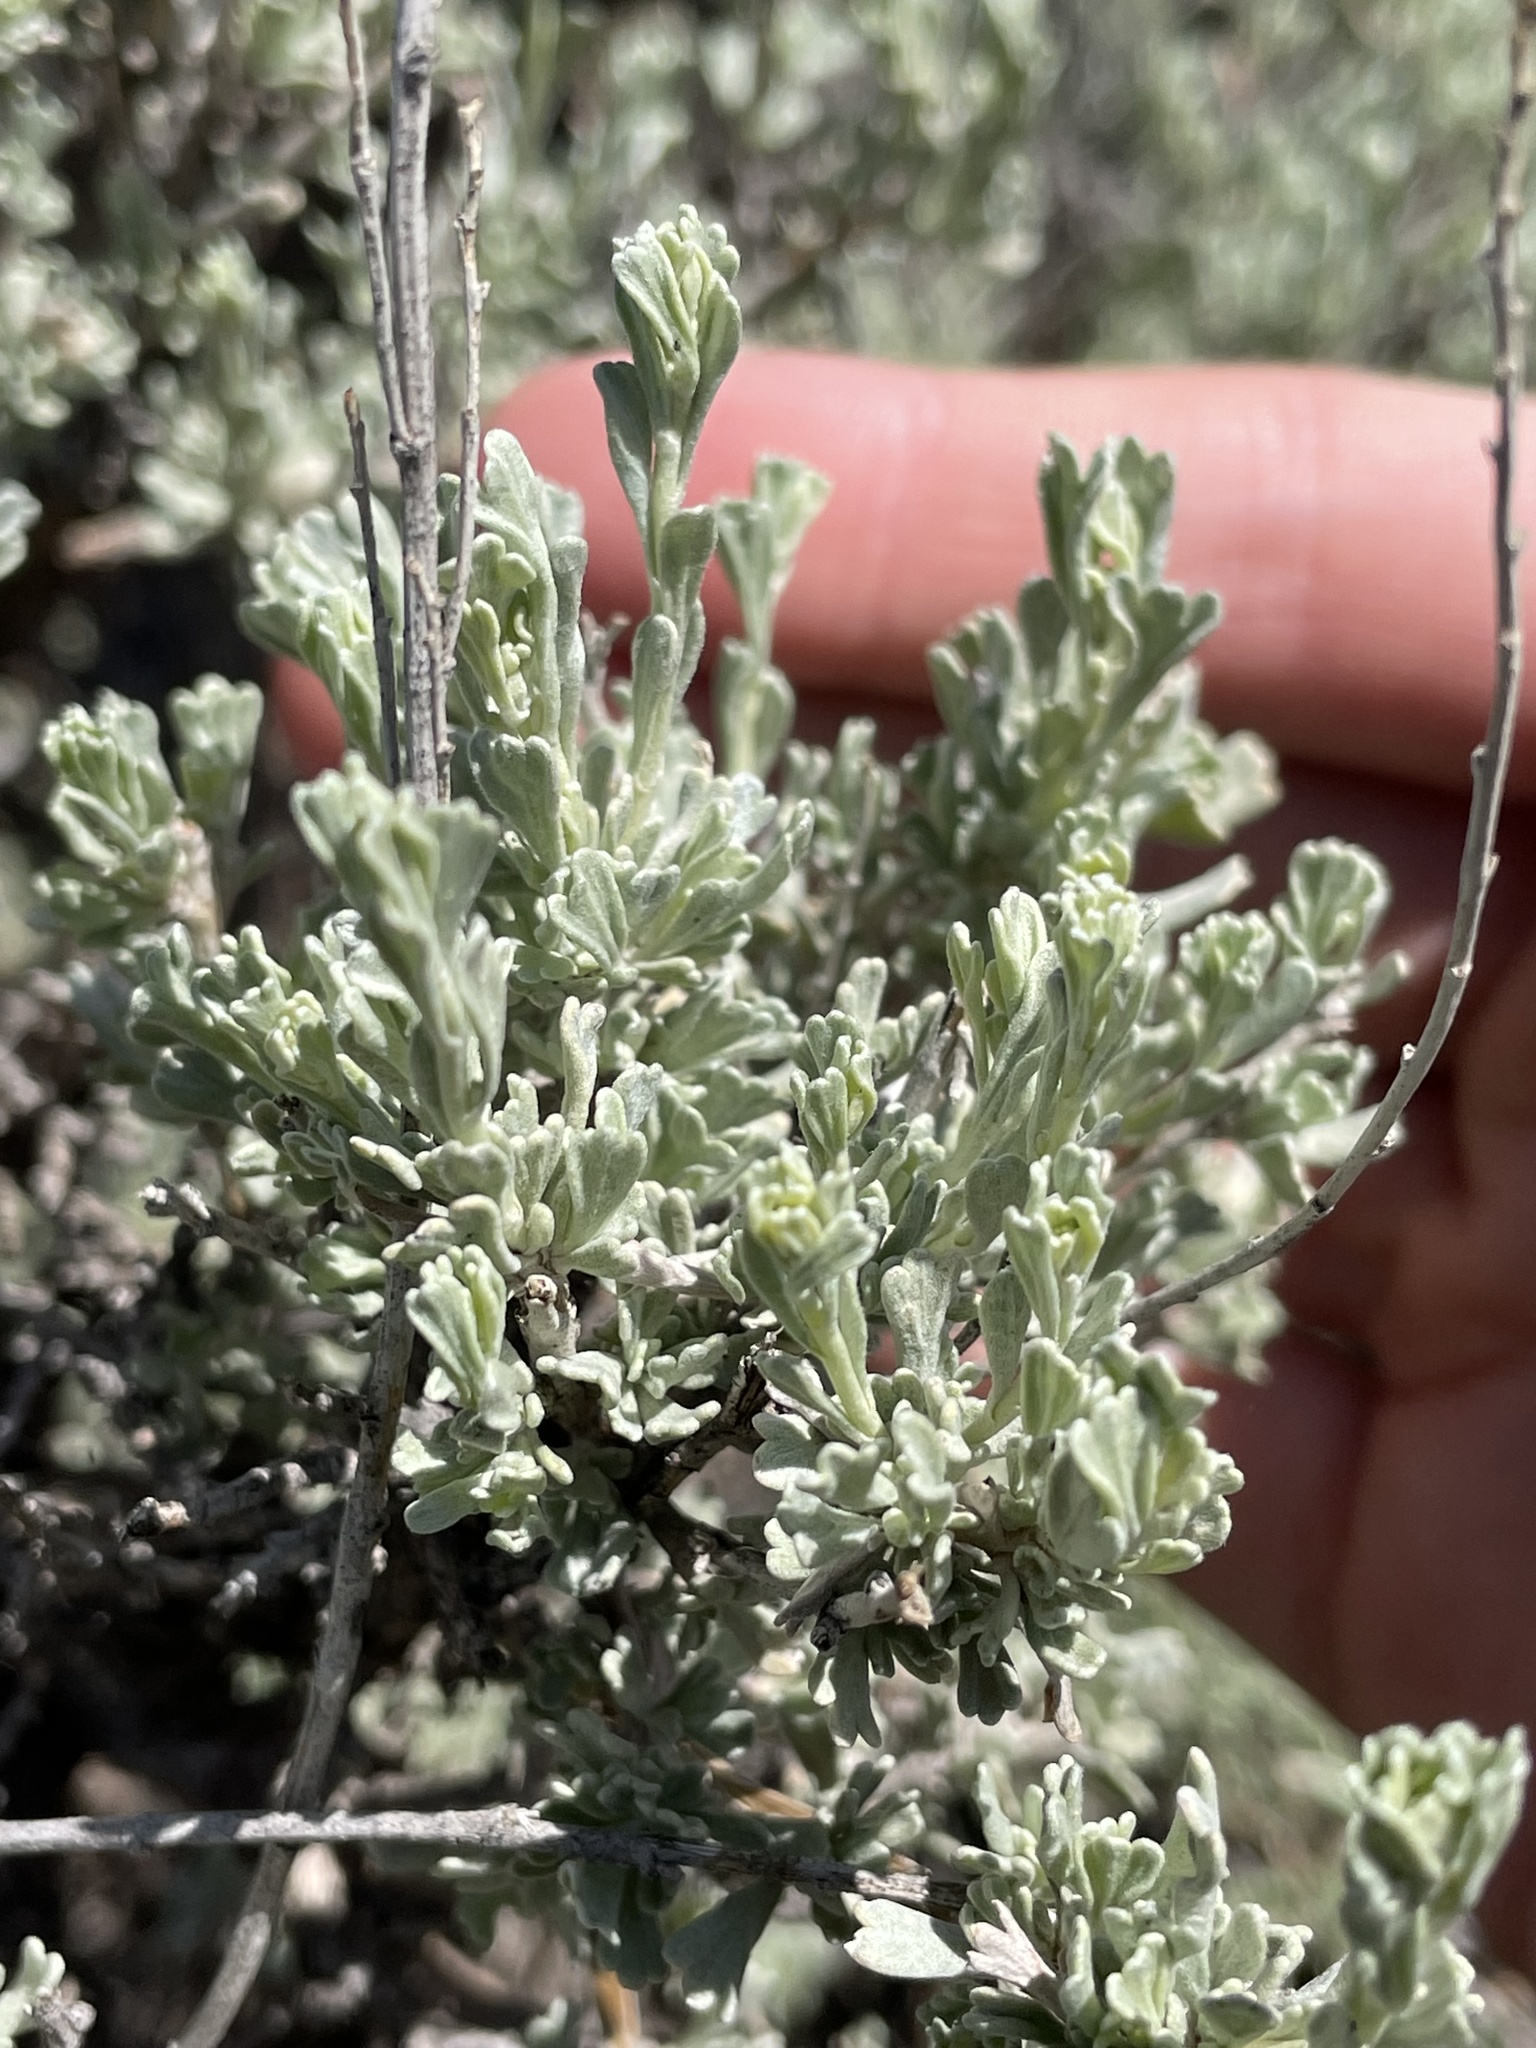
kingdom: Plantae
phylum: Tracheophyta
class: Magnoliopsida
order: Asterales
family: Asteraceae
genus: Artemisia
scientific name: Artemisia tridentata
